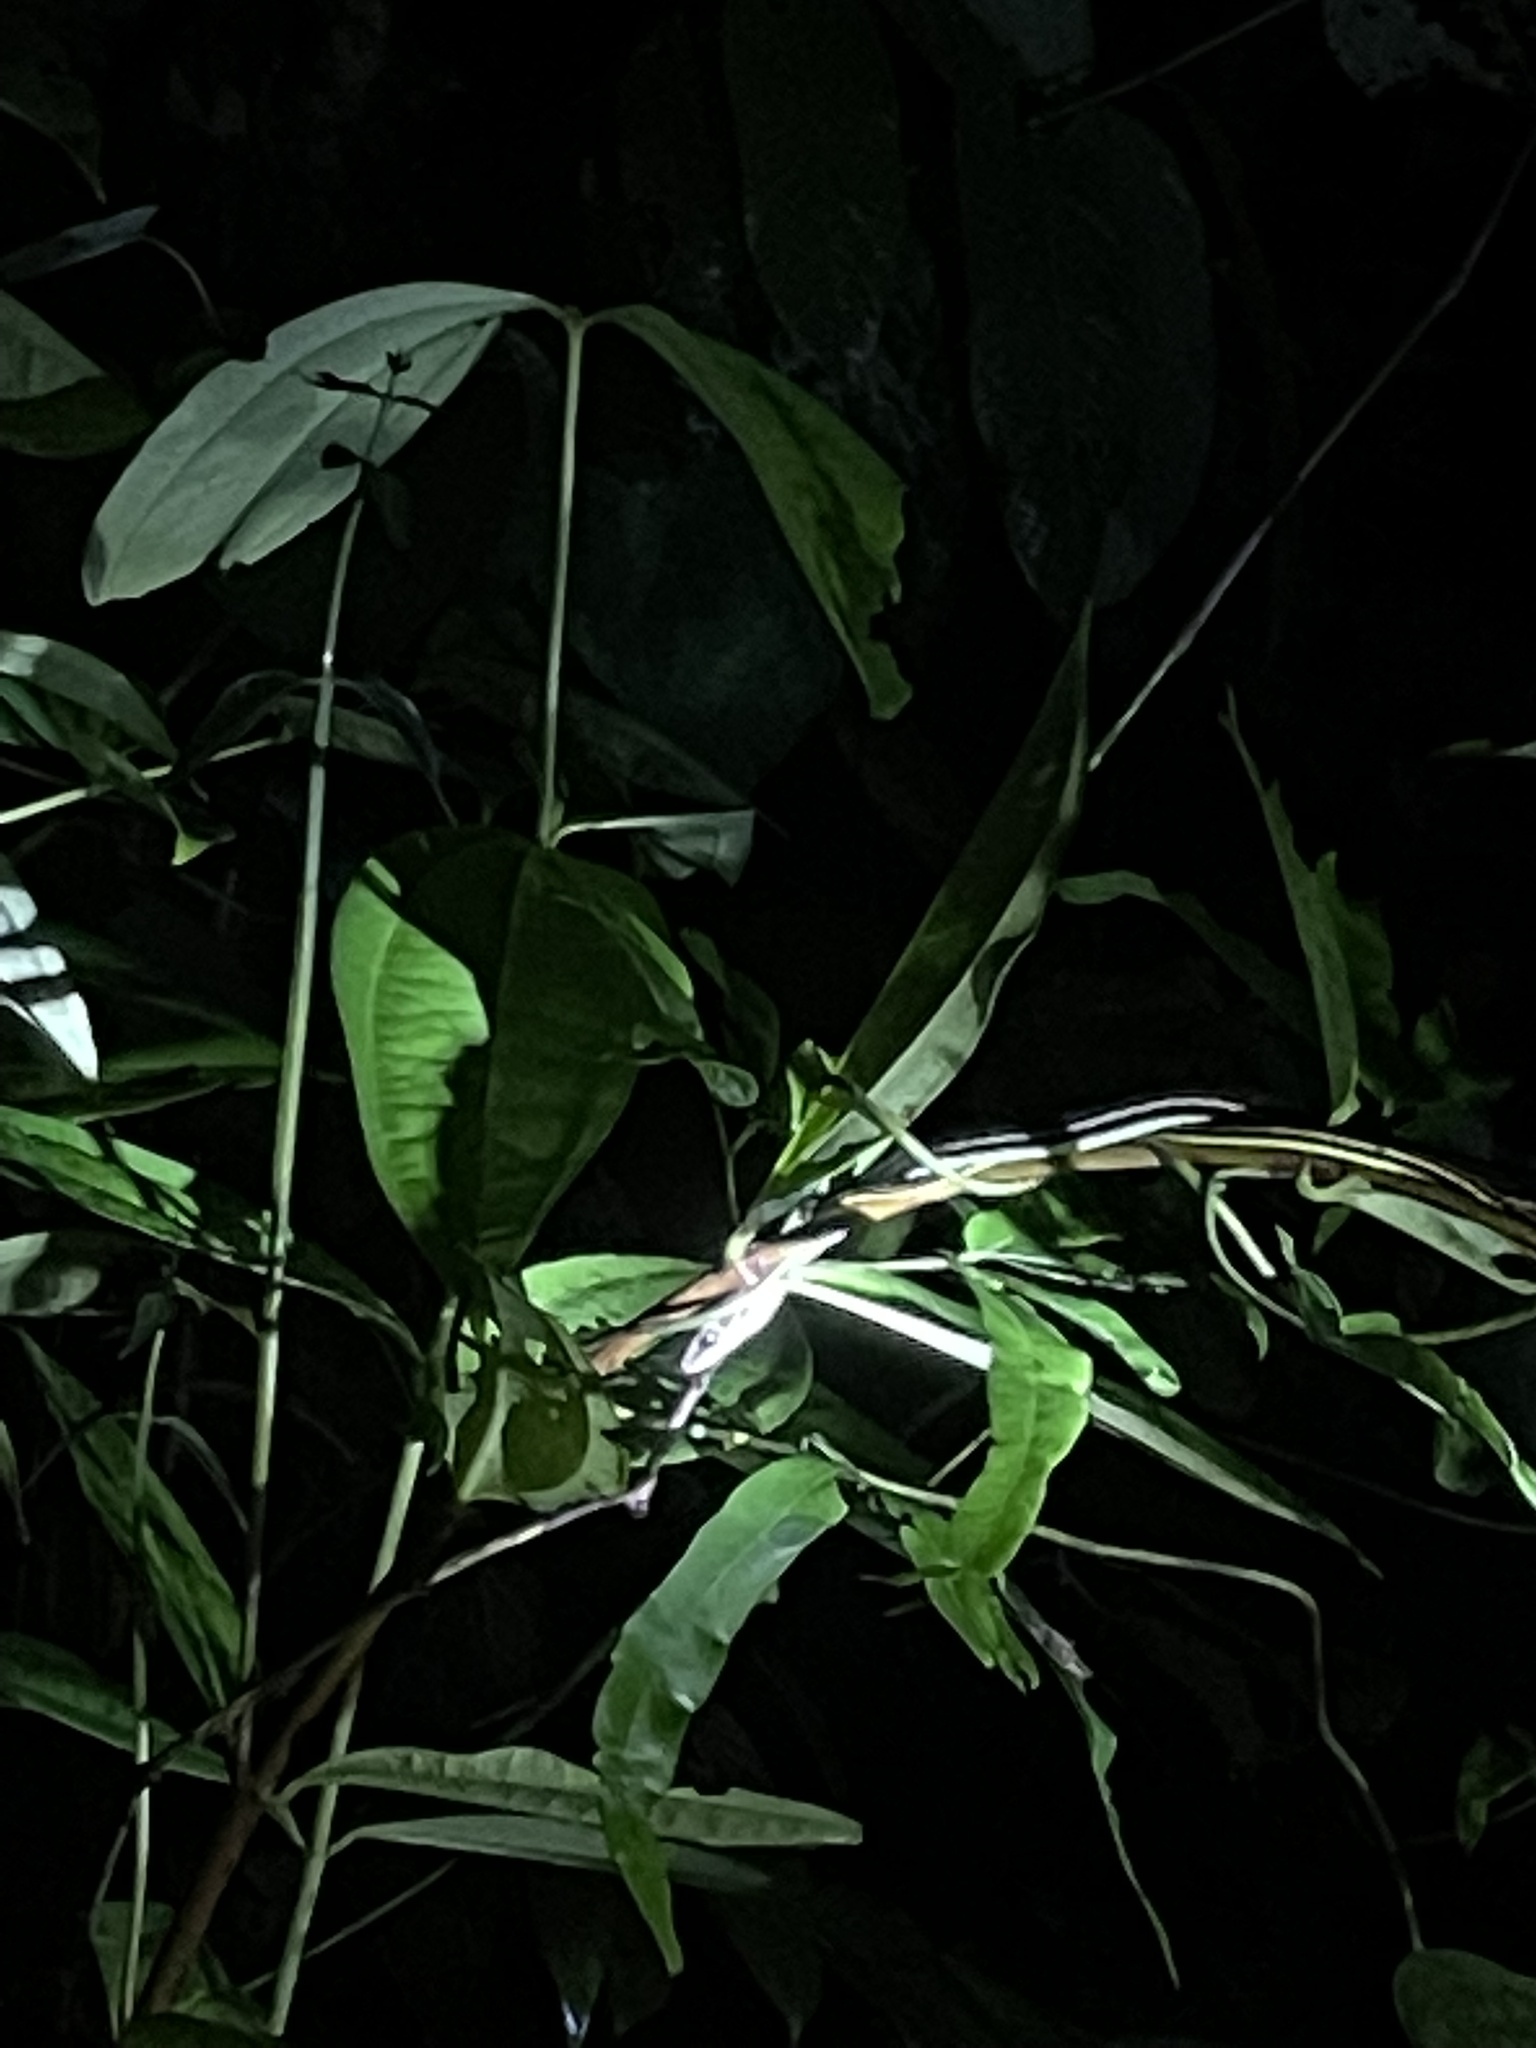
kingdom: Animalia
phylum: Chordata
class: Squamata
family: Colubridae
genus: Dendrelaphis
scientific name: Dendrelaphis caudolineatus
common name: Striped bronzeback
